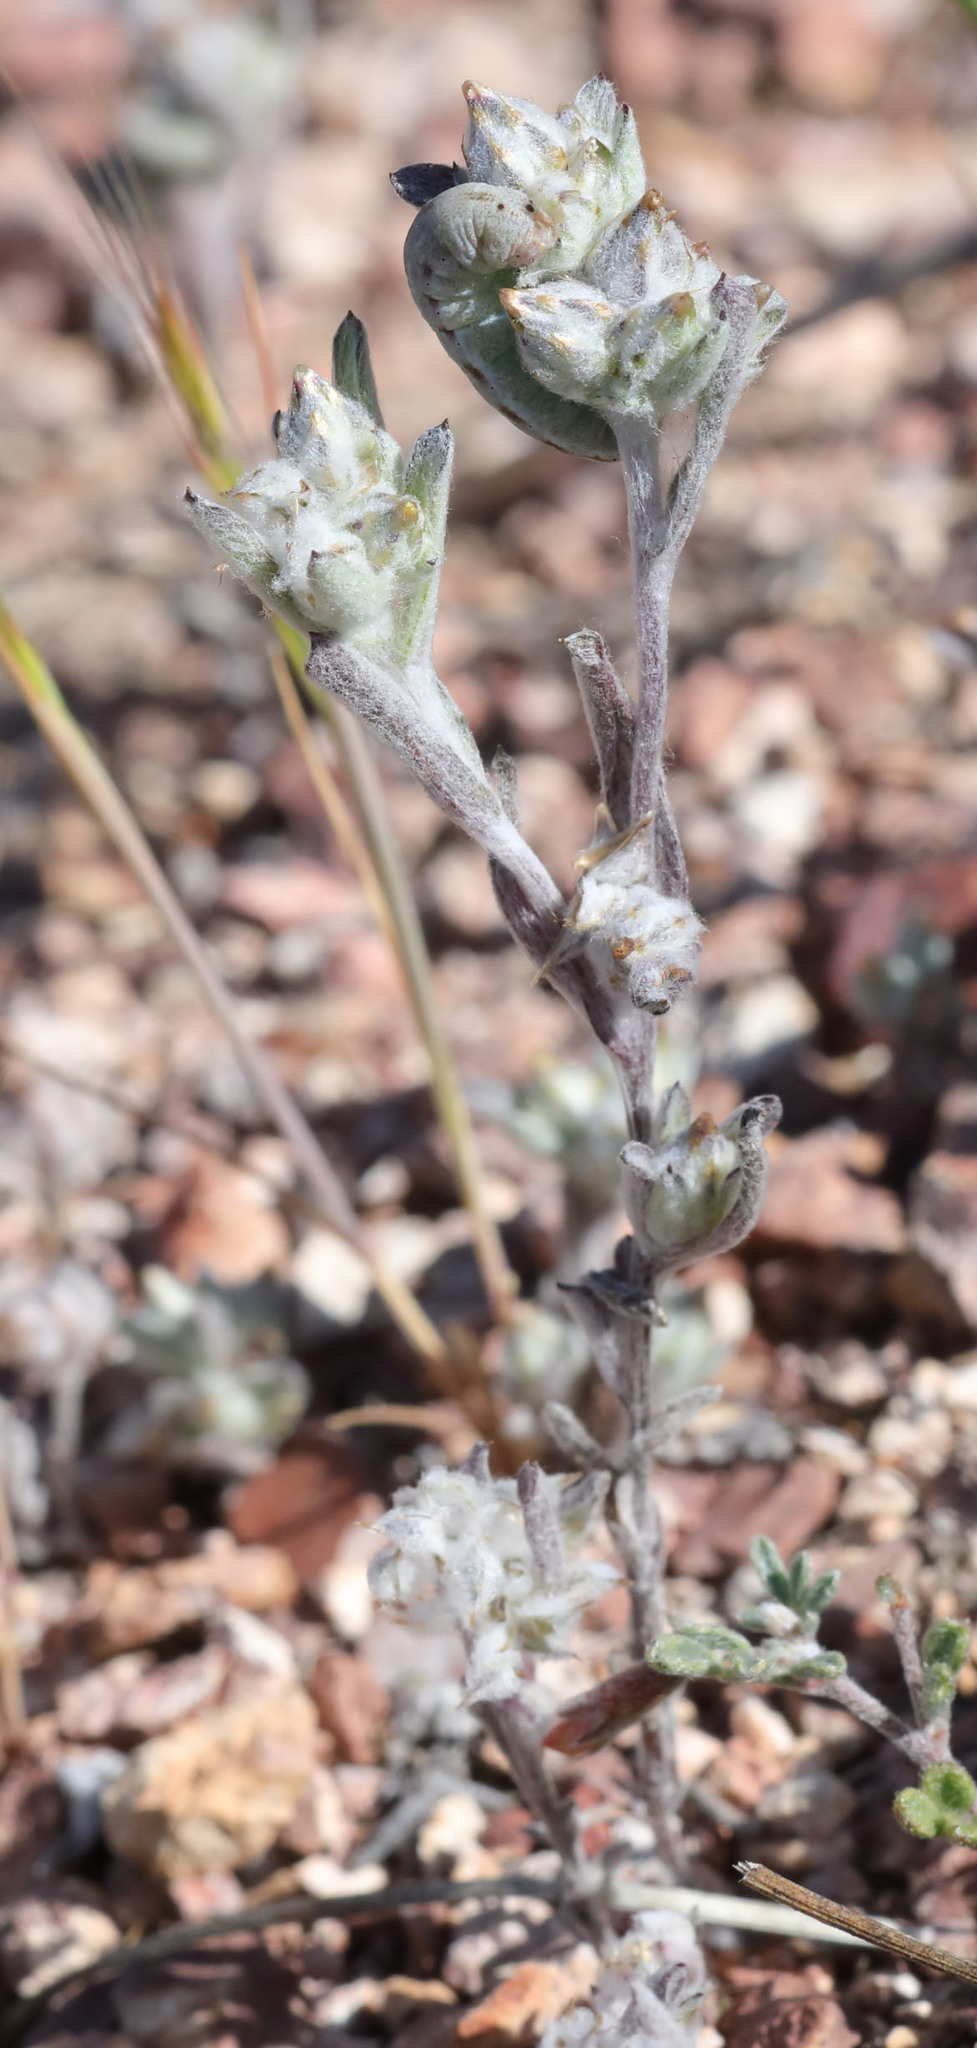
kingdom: Plantae
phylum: Tracheophyta
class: Magnoliopsida
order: Asterales
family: Asteraceae
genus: Logfia
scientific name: Logfia californica
